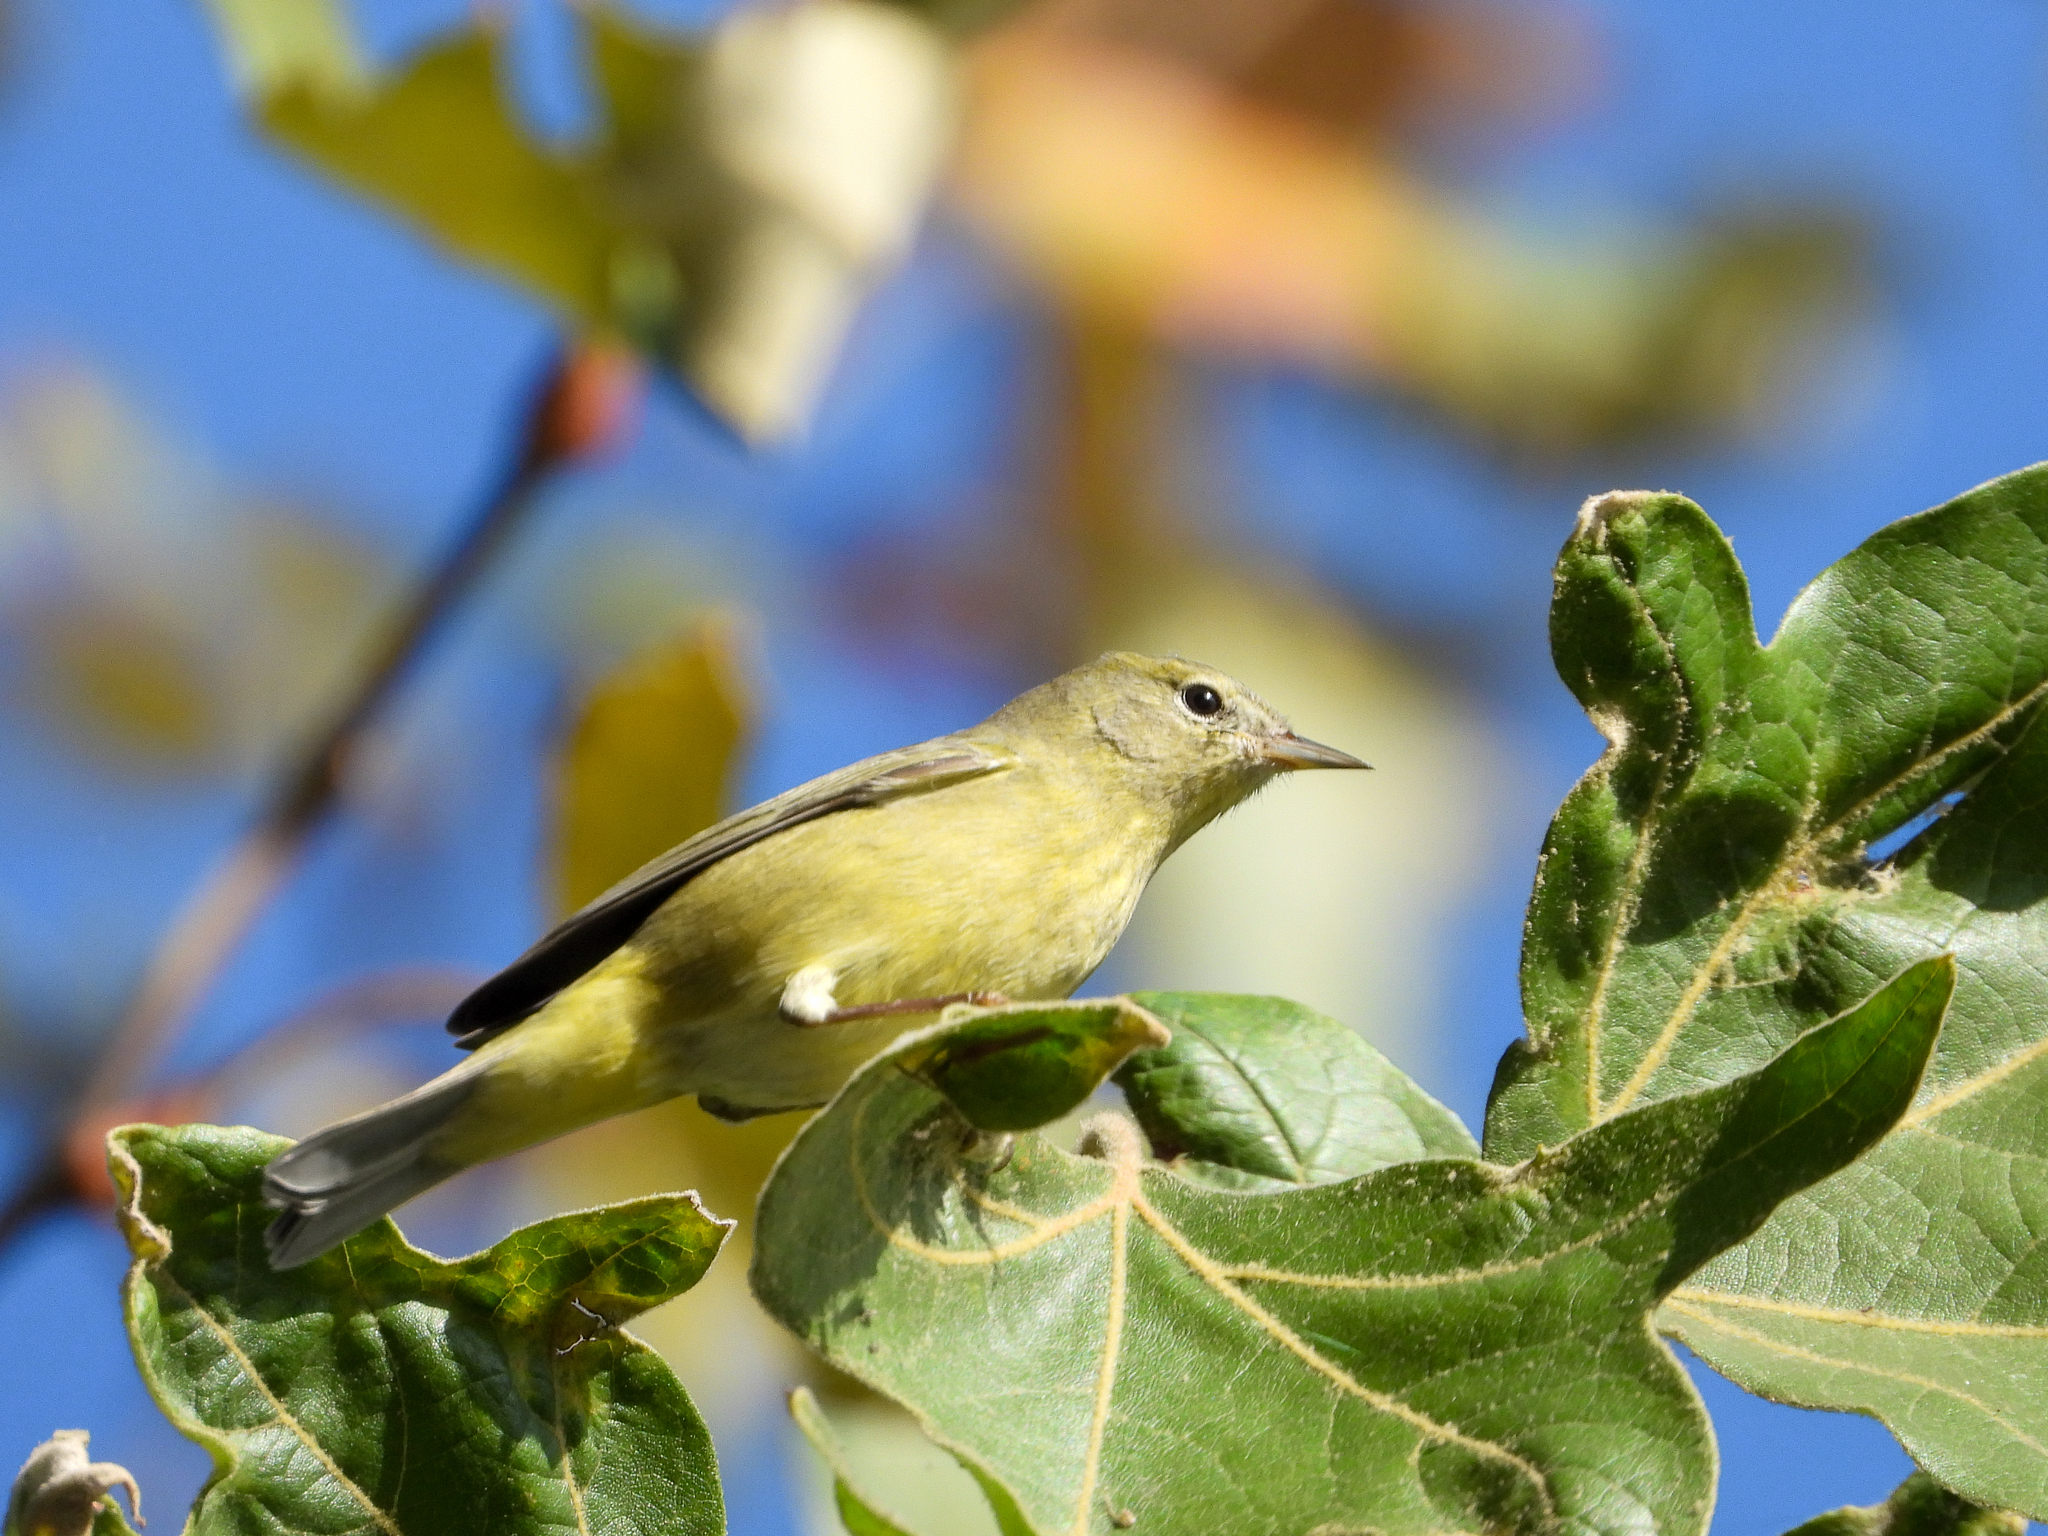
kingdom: Animalia
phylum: Chordata
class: Aves
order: Passeriformes
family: Parulidae
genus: Leiothlypis
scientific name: Leiothlypis celata
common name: Orange-crowned warbler
